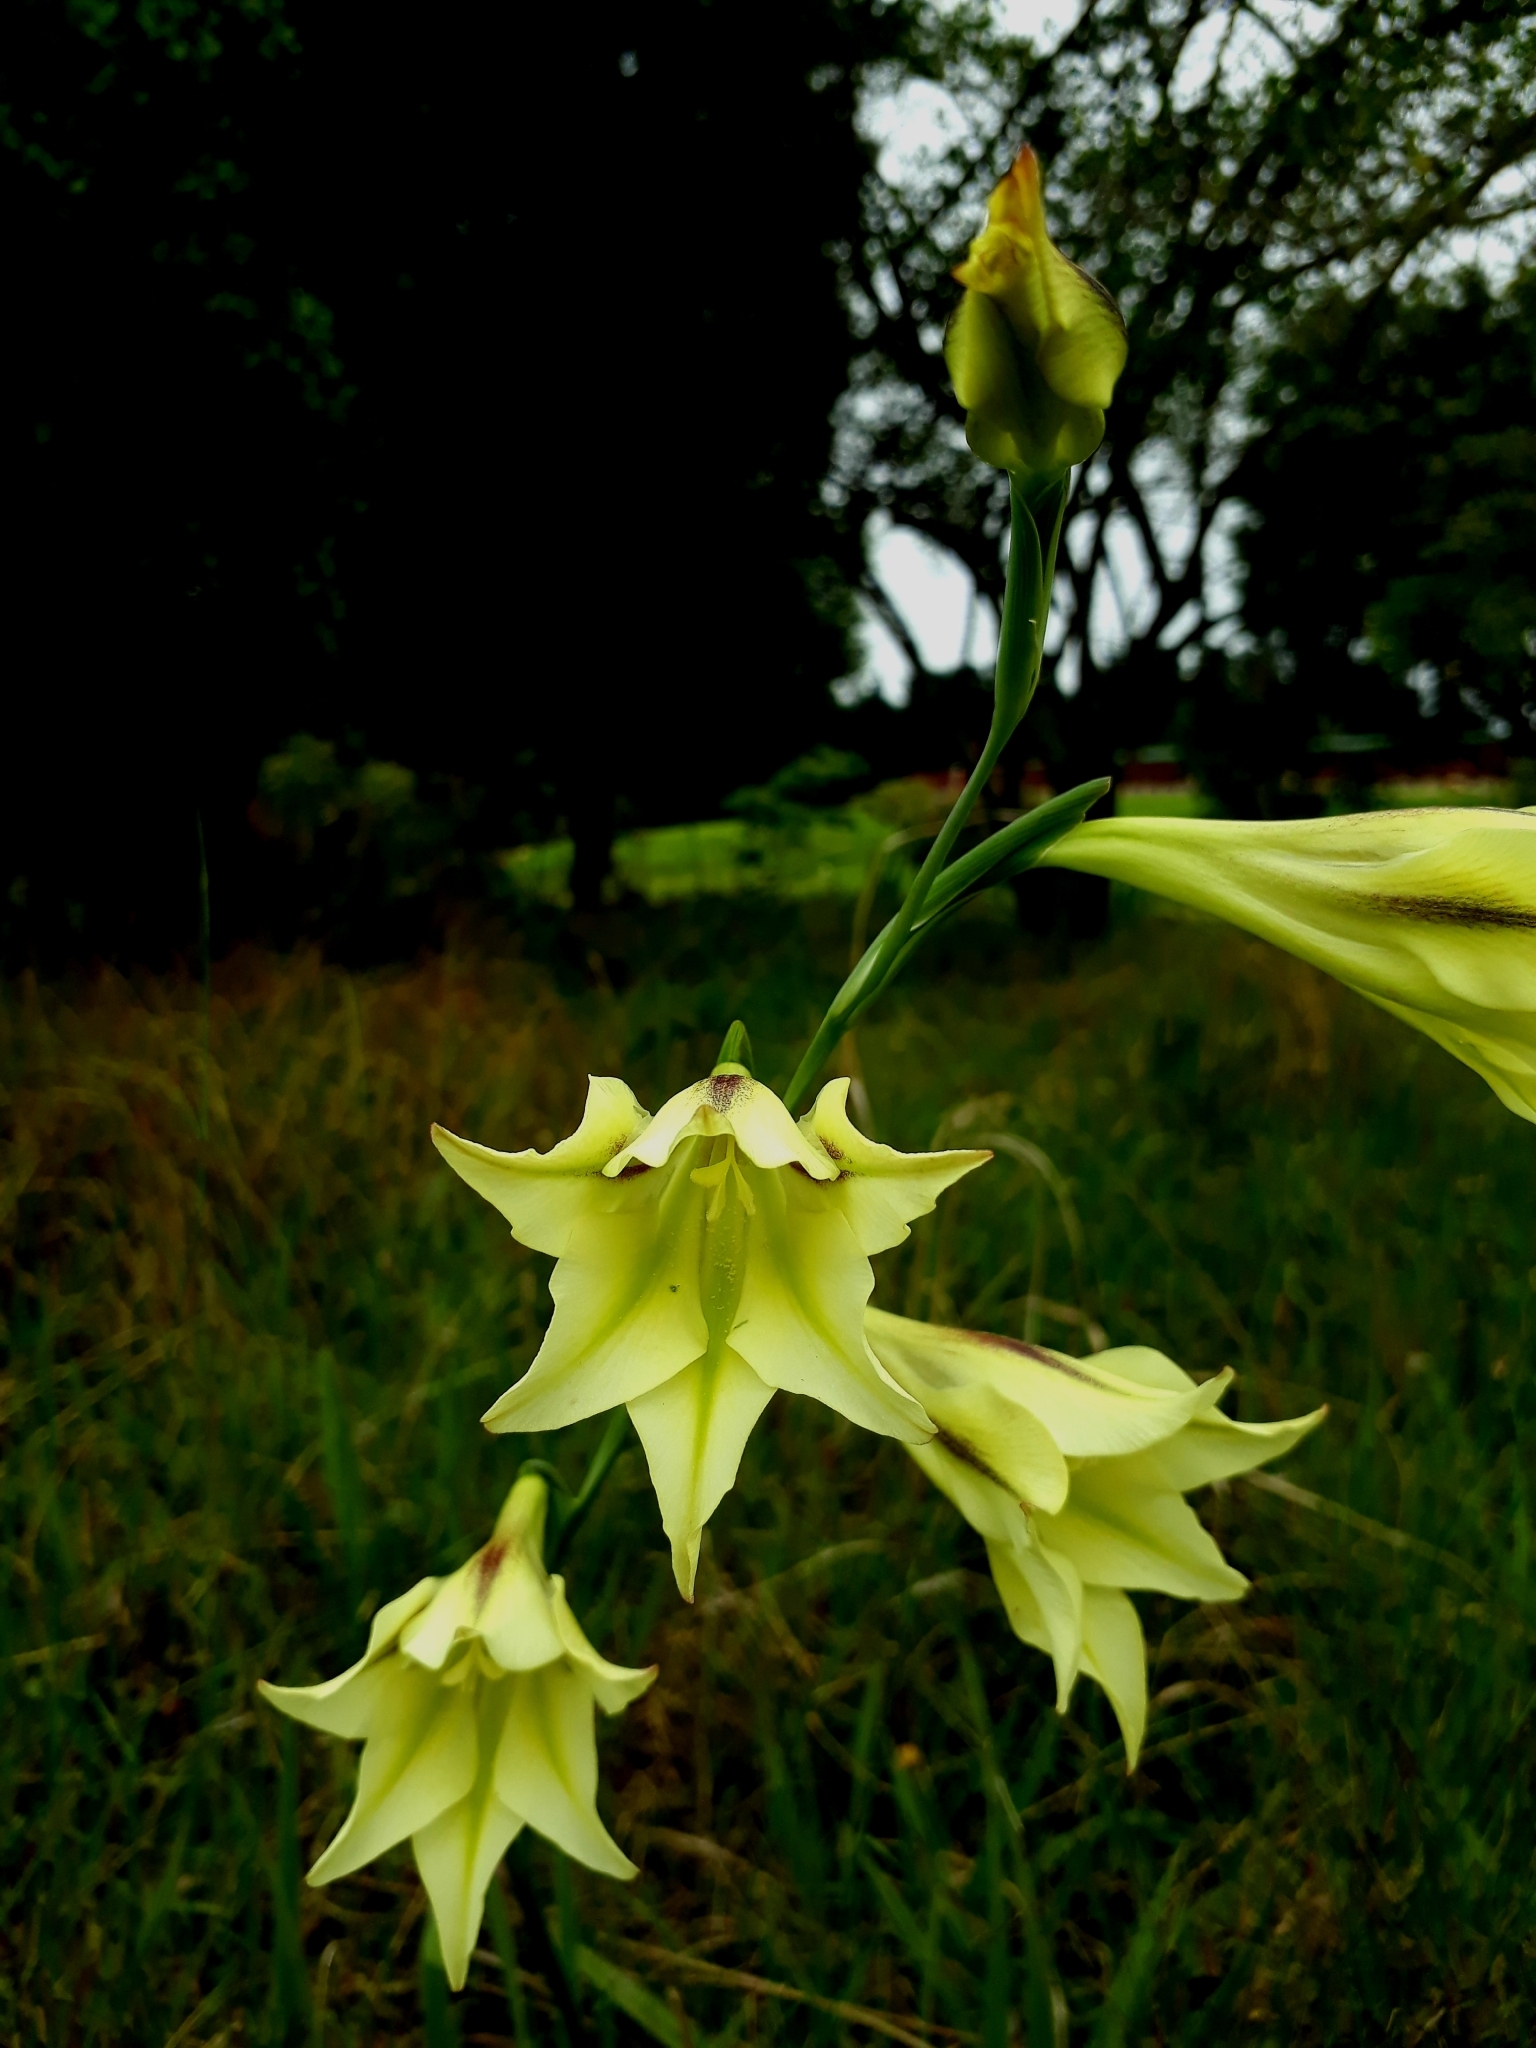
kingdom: Plantae
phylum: Tracheophyta
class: Liliopsida
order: Asparagales
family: Iridaceae
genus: Gladiolus
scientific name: Gladiolus tristis
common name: Ever-flowering gladiolus
